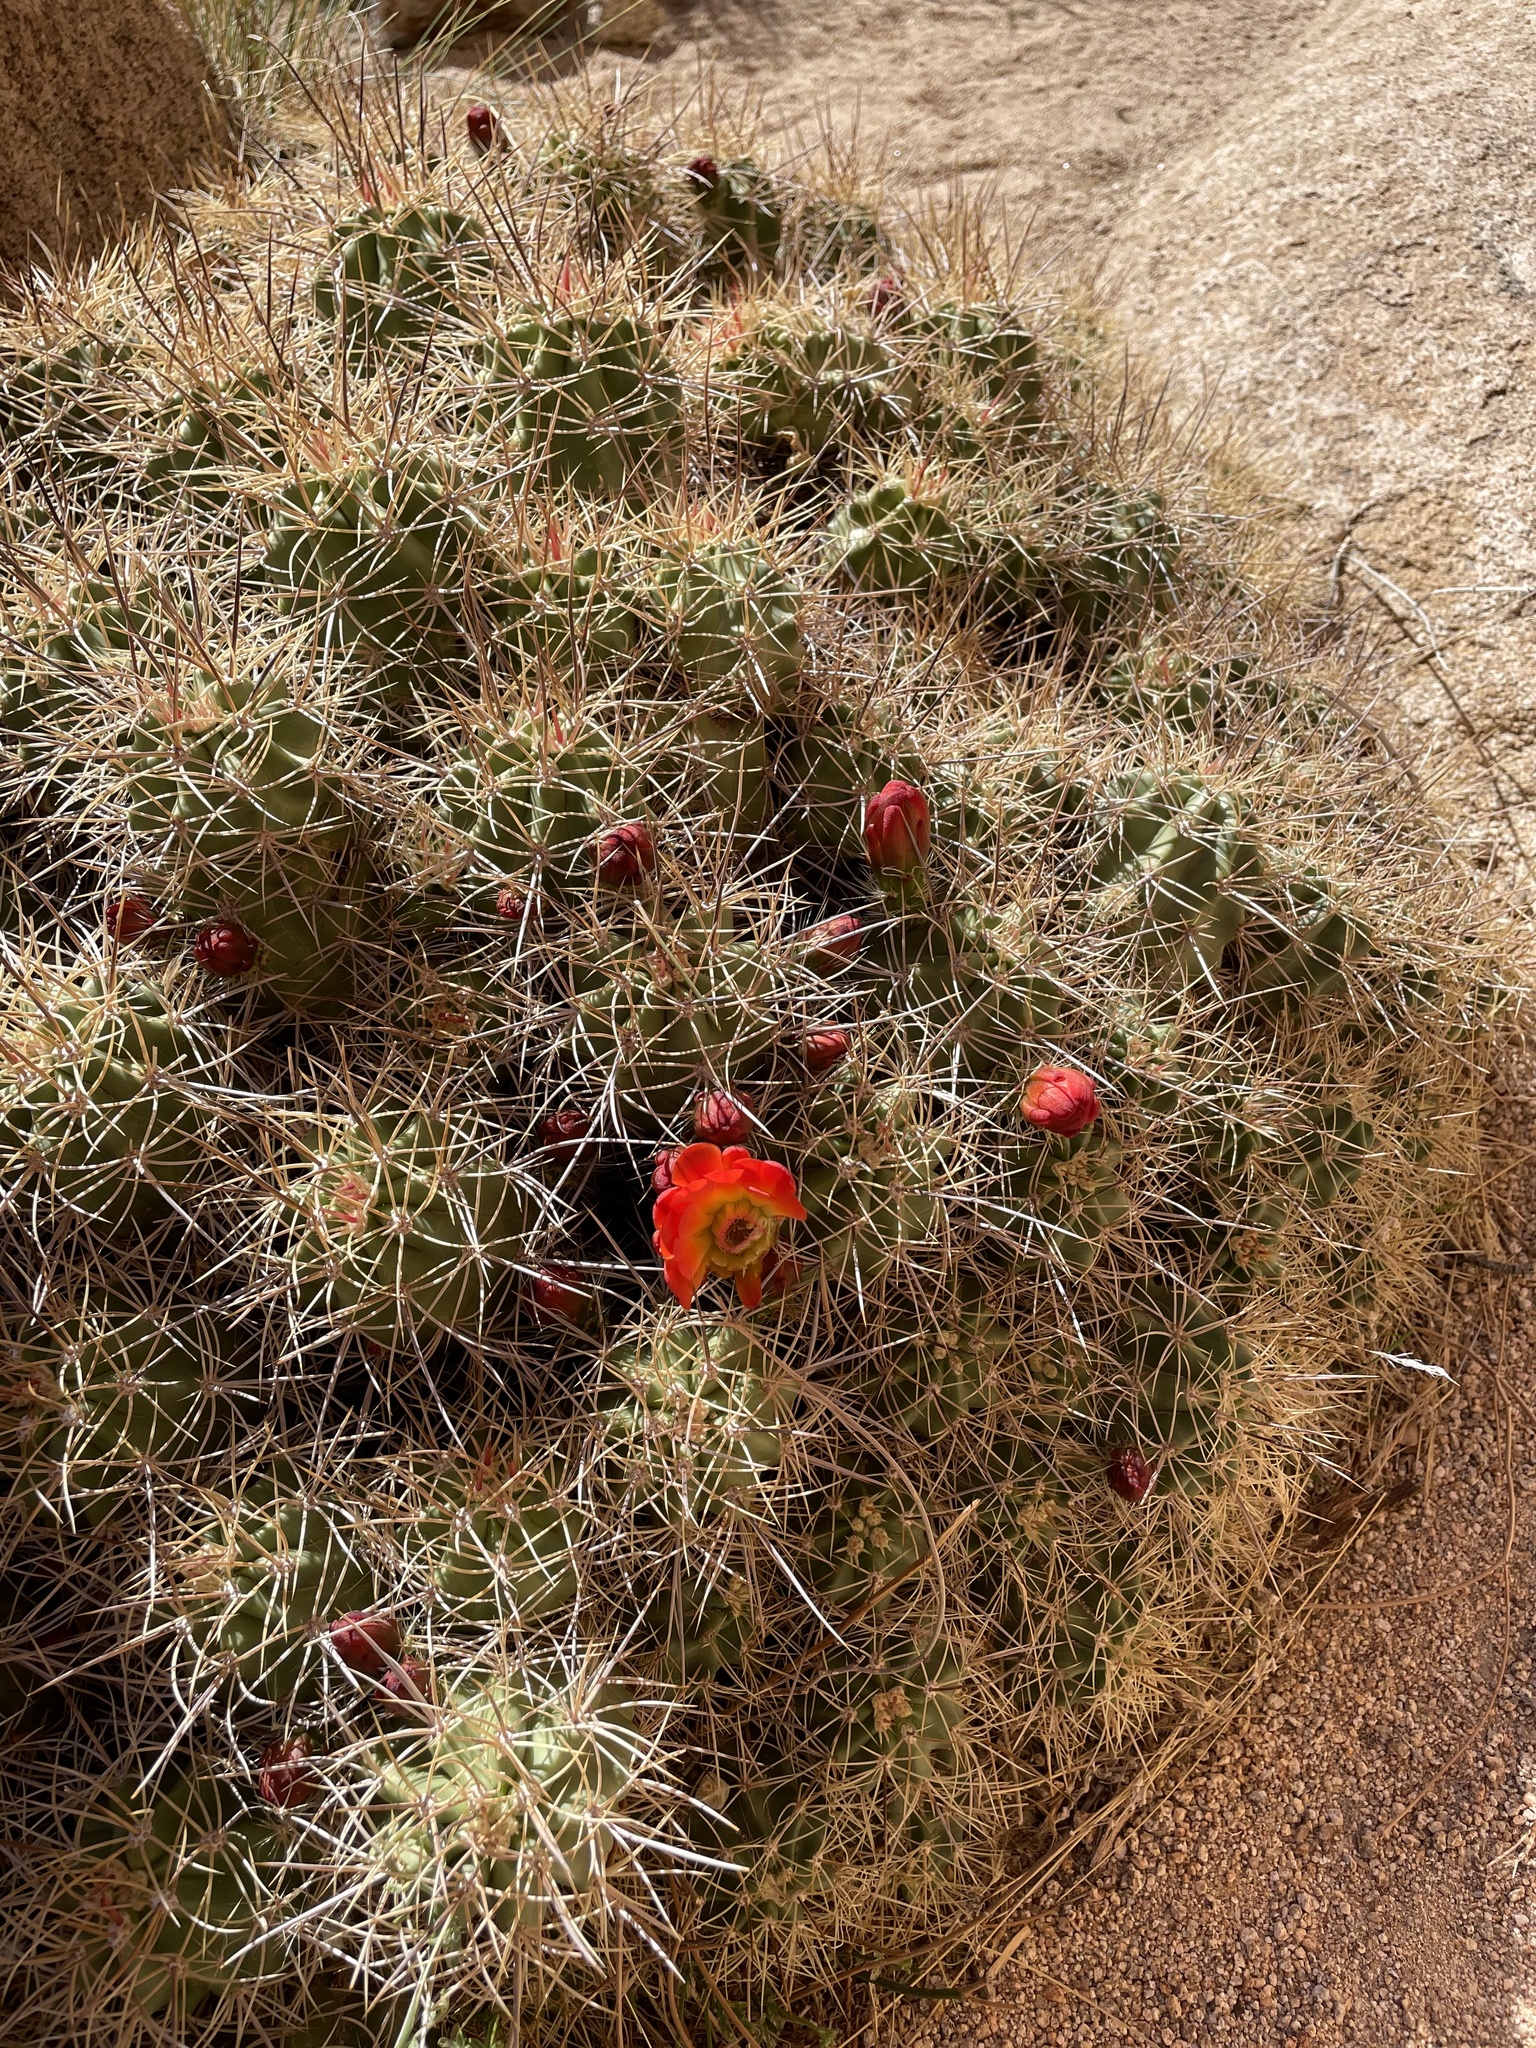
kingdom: Plantae
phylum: Tracheophyta
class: Magnoliopsida
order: Caryophyllales
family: Cactaceae
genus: Echinocereus
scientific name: Echinocereus triglochidiatus
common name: Claretcup hedgehog
